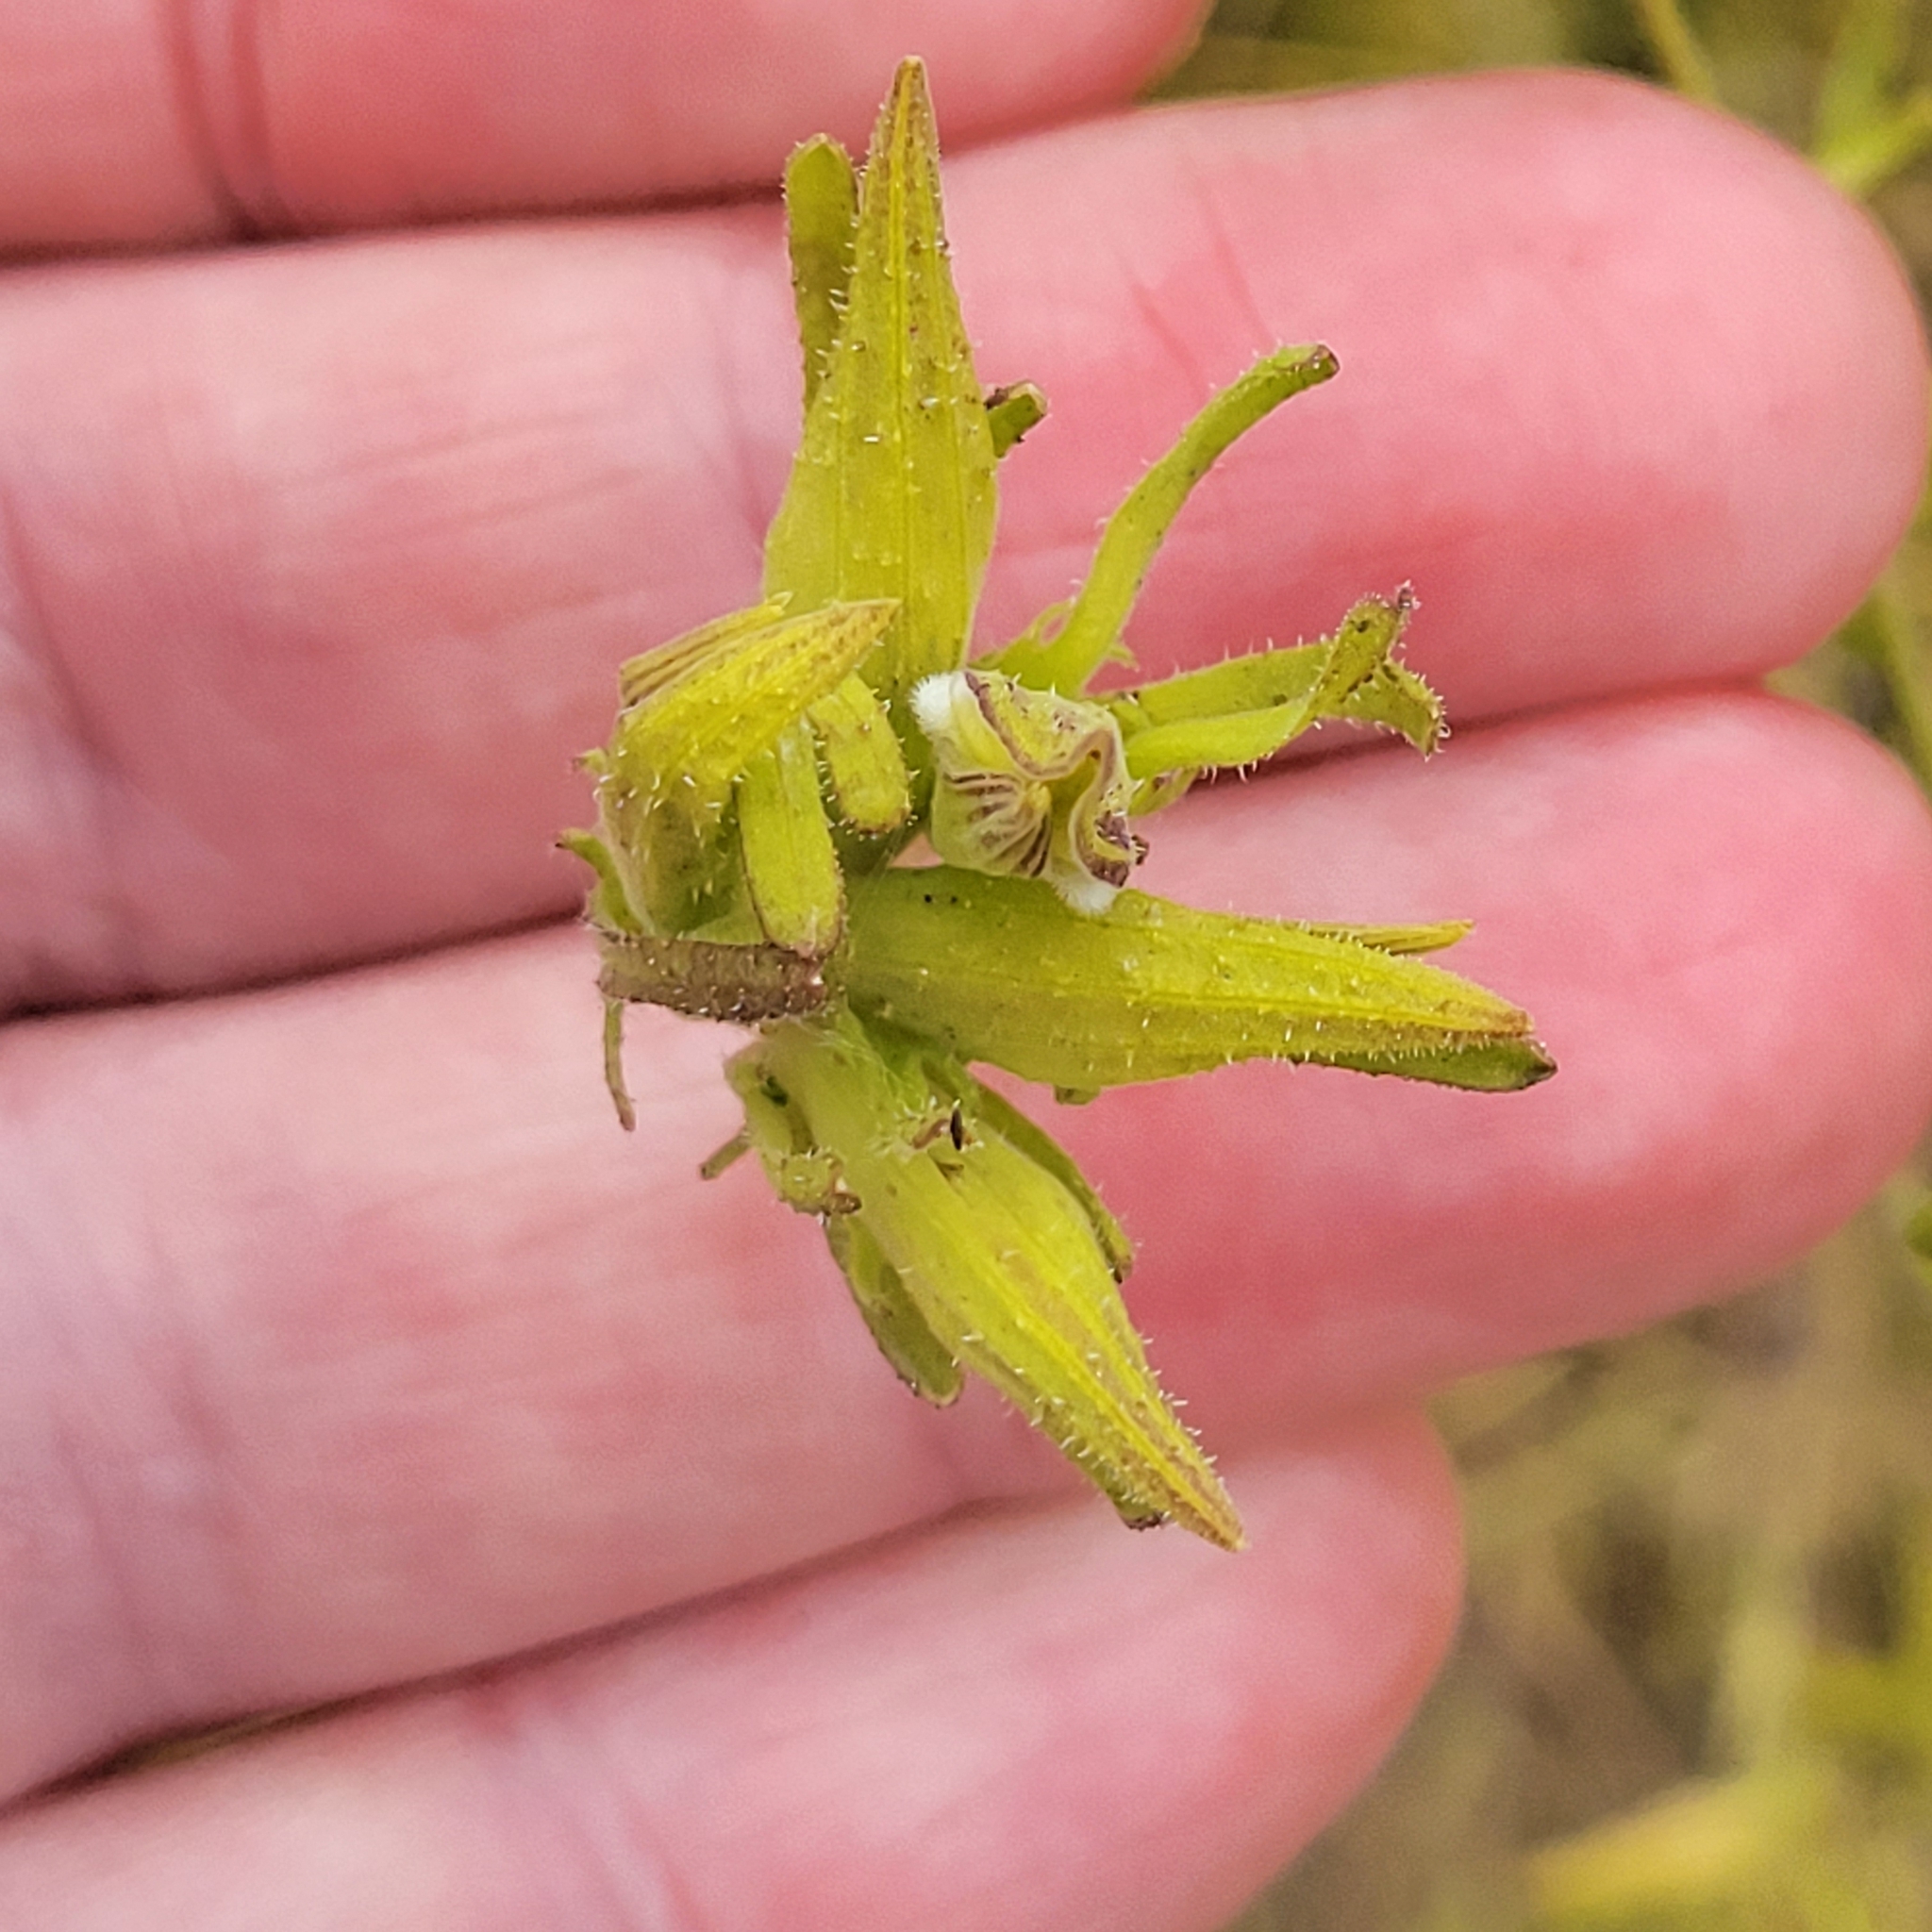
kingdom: Plantae
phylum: Tracheophyta
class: Magnoliopsida
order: Lamiales
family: Orobanchaceae
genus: Cordylanthus
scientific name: Cordylanthus rigidus
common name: Stiff-branch bird's-beak
